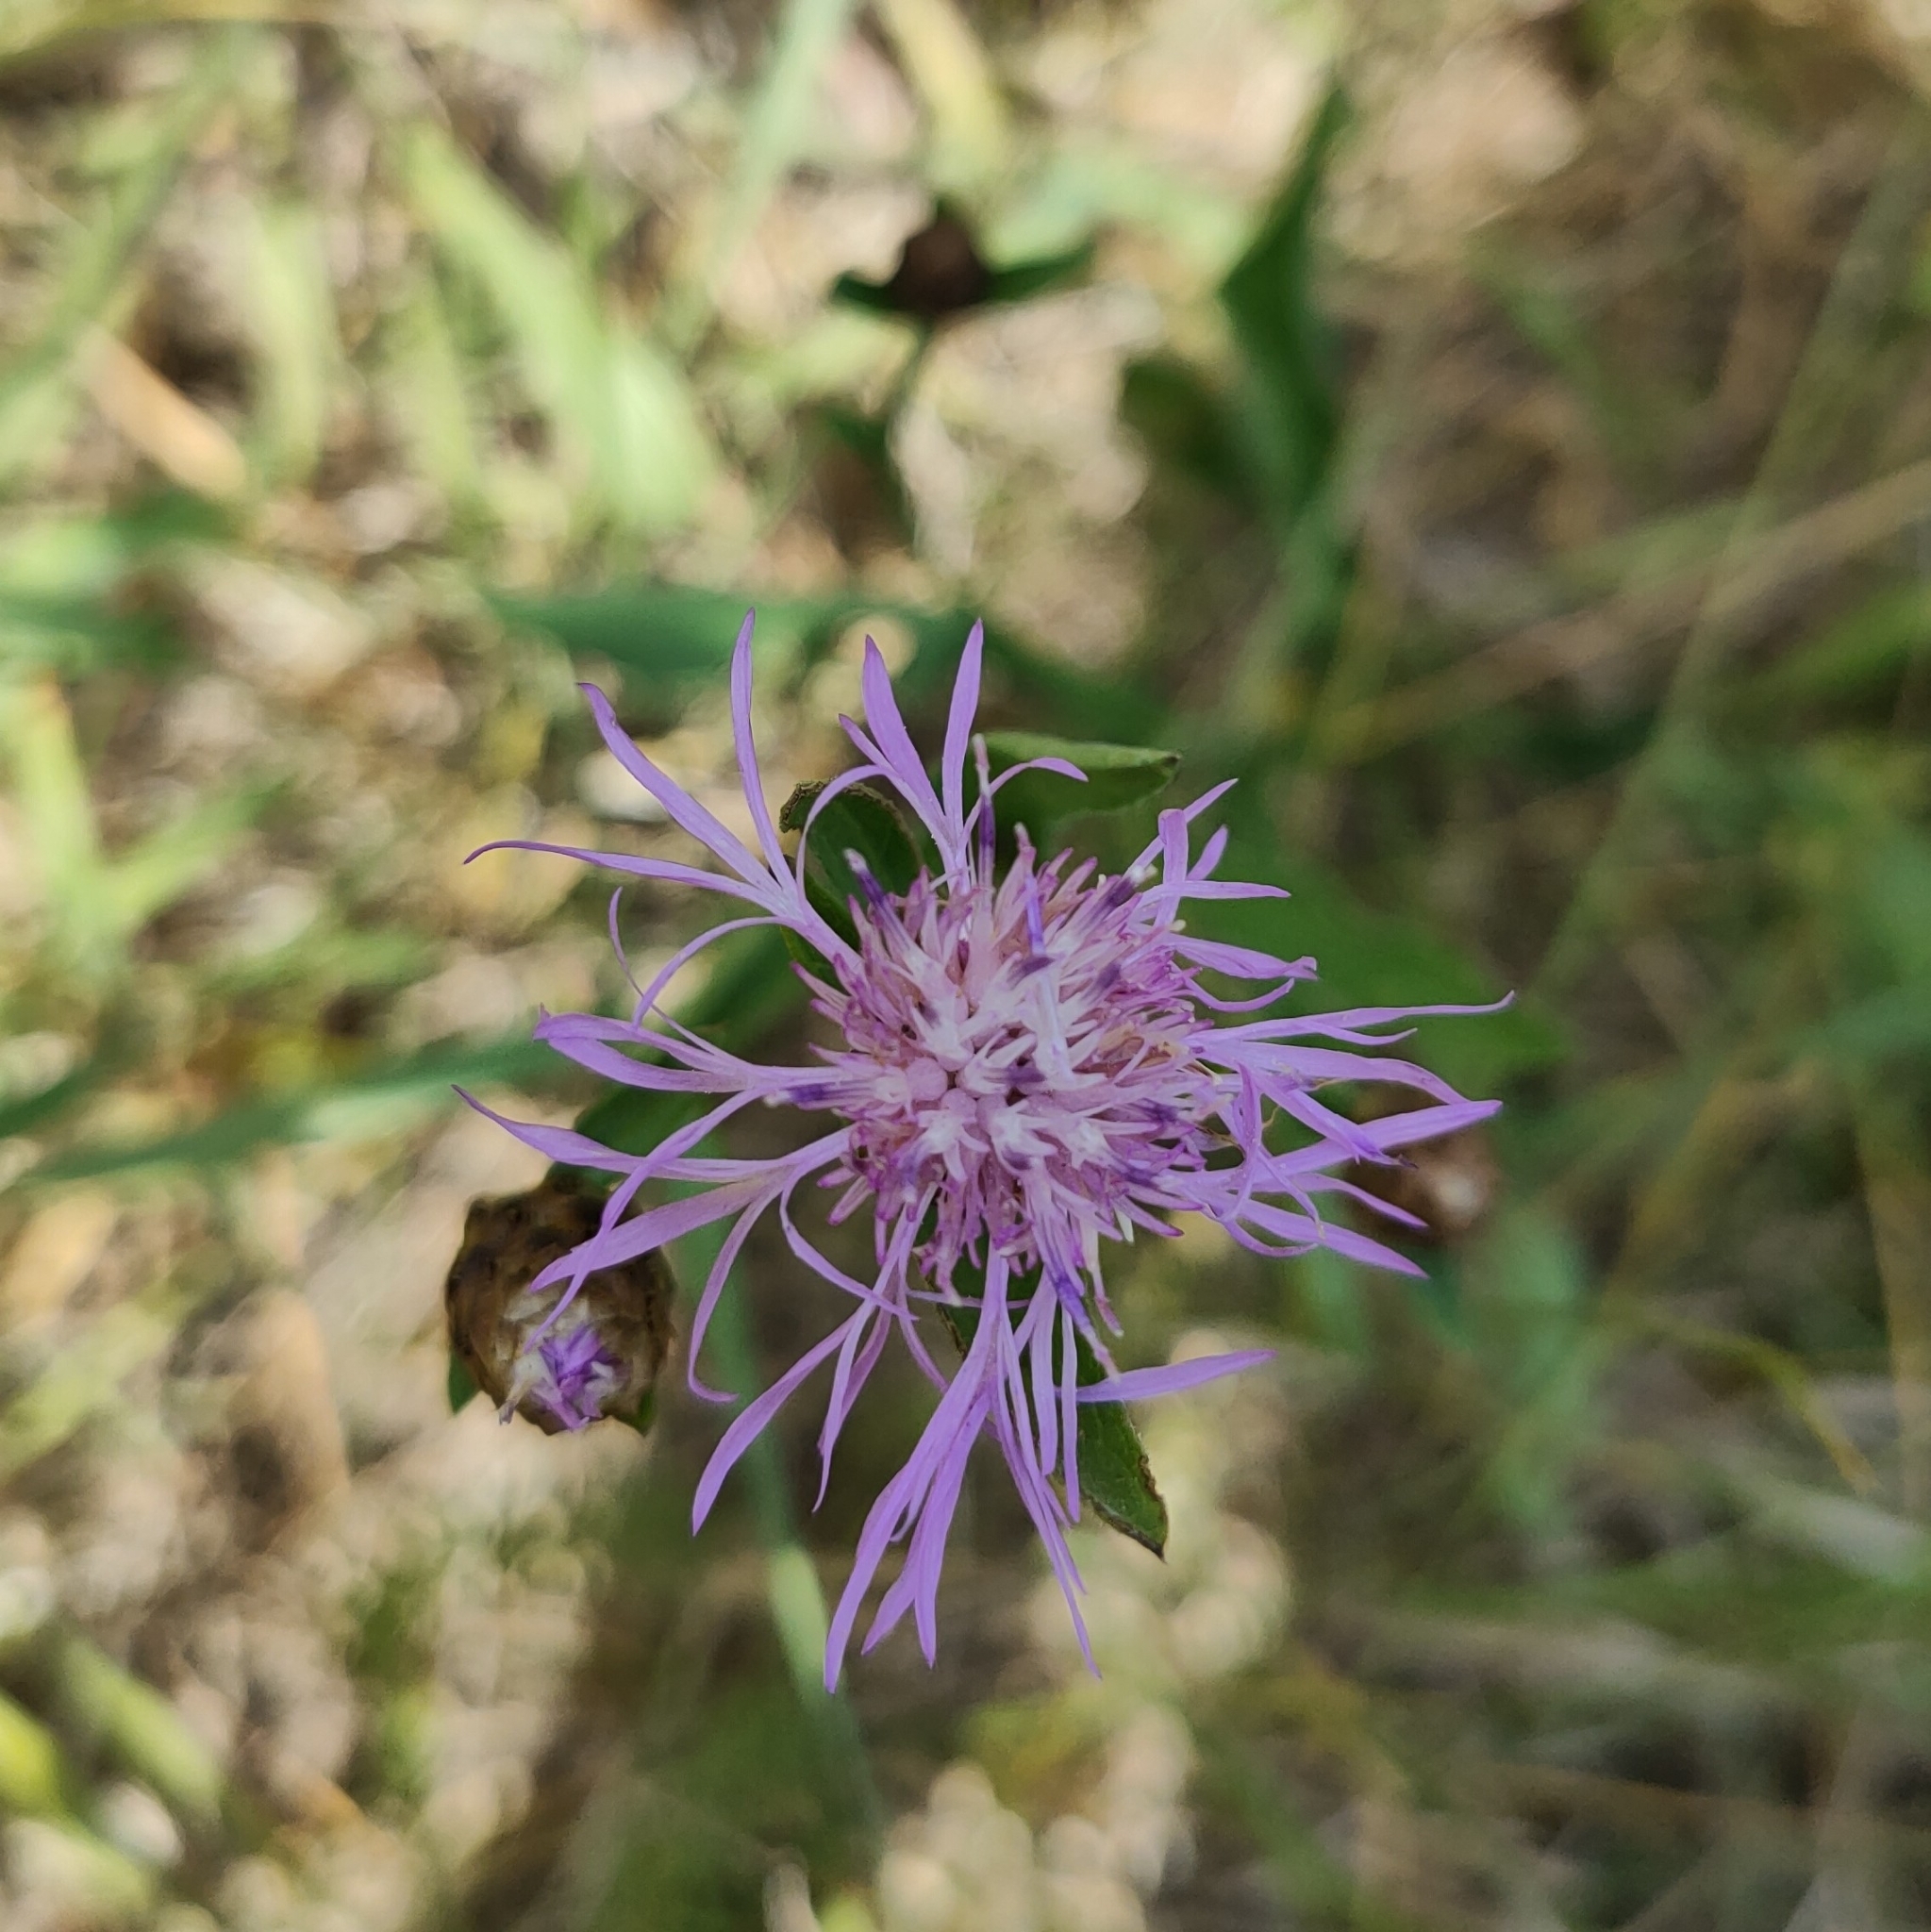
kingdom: Plantae
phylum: Tracheophyta
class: Magnoliopsida
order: Asterales
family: Asteraceae
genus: Centaurea
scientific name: Centaurea jacea
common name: Brown knapweed
